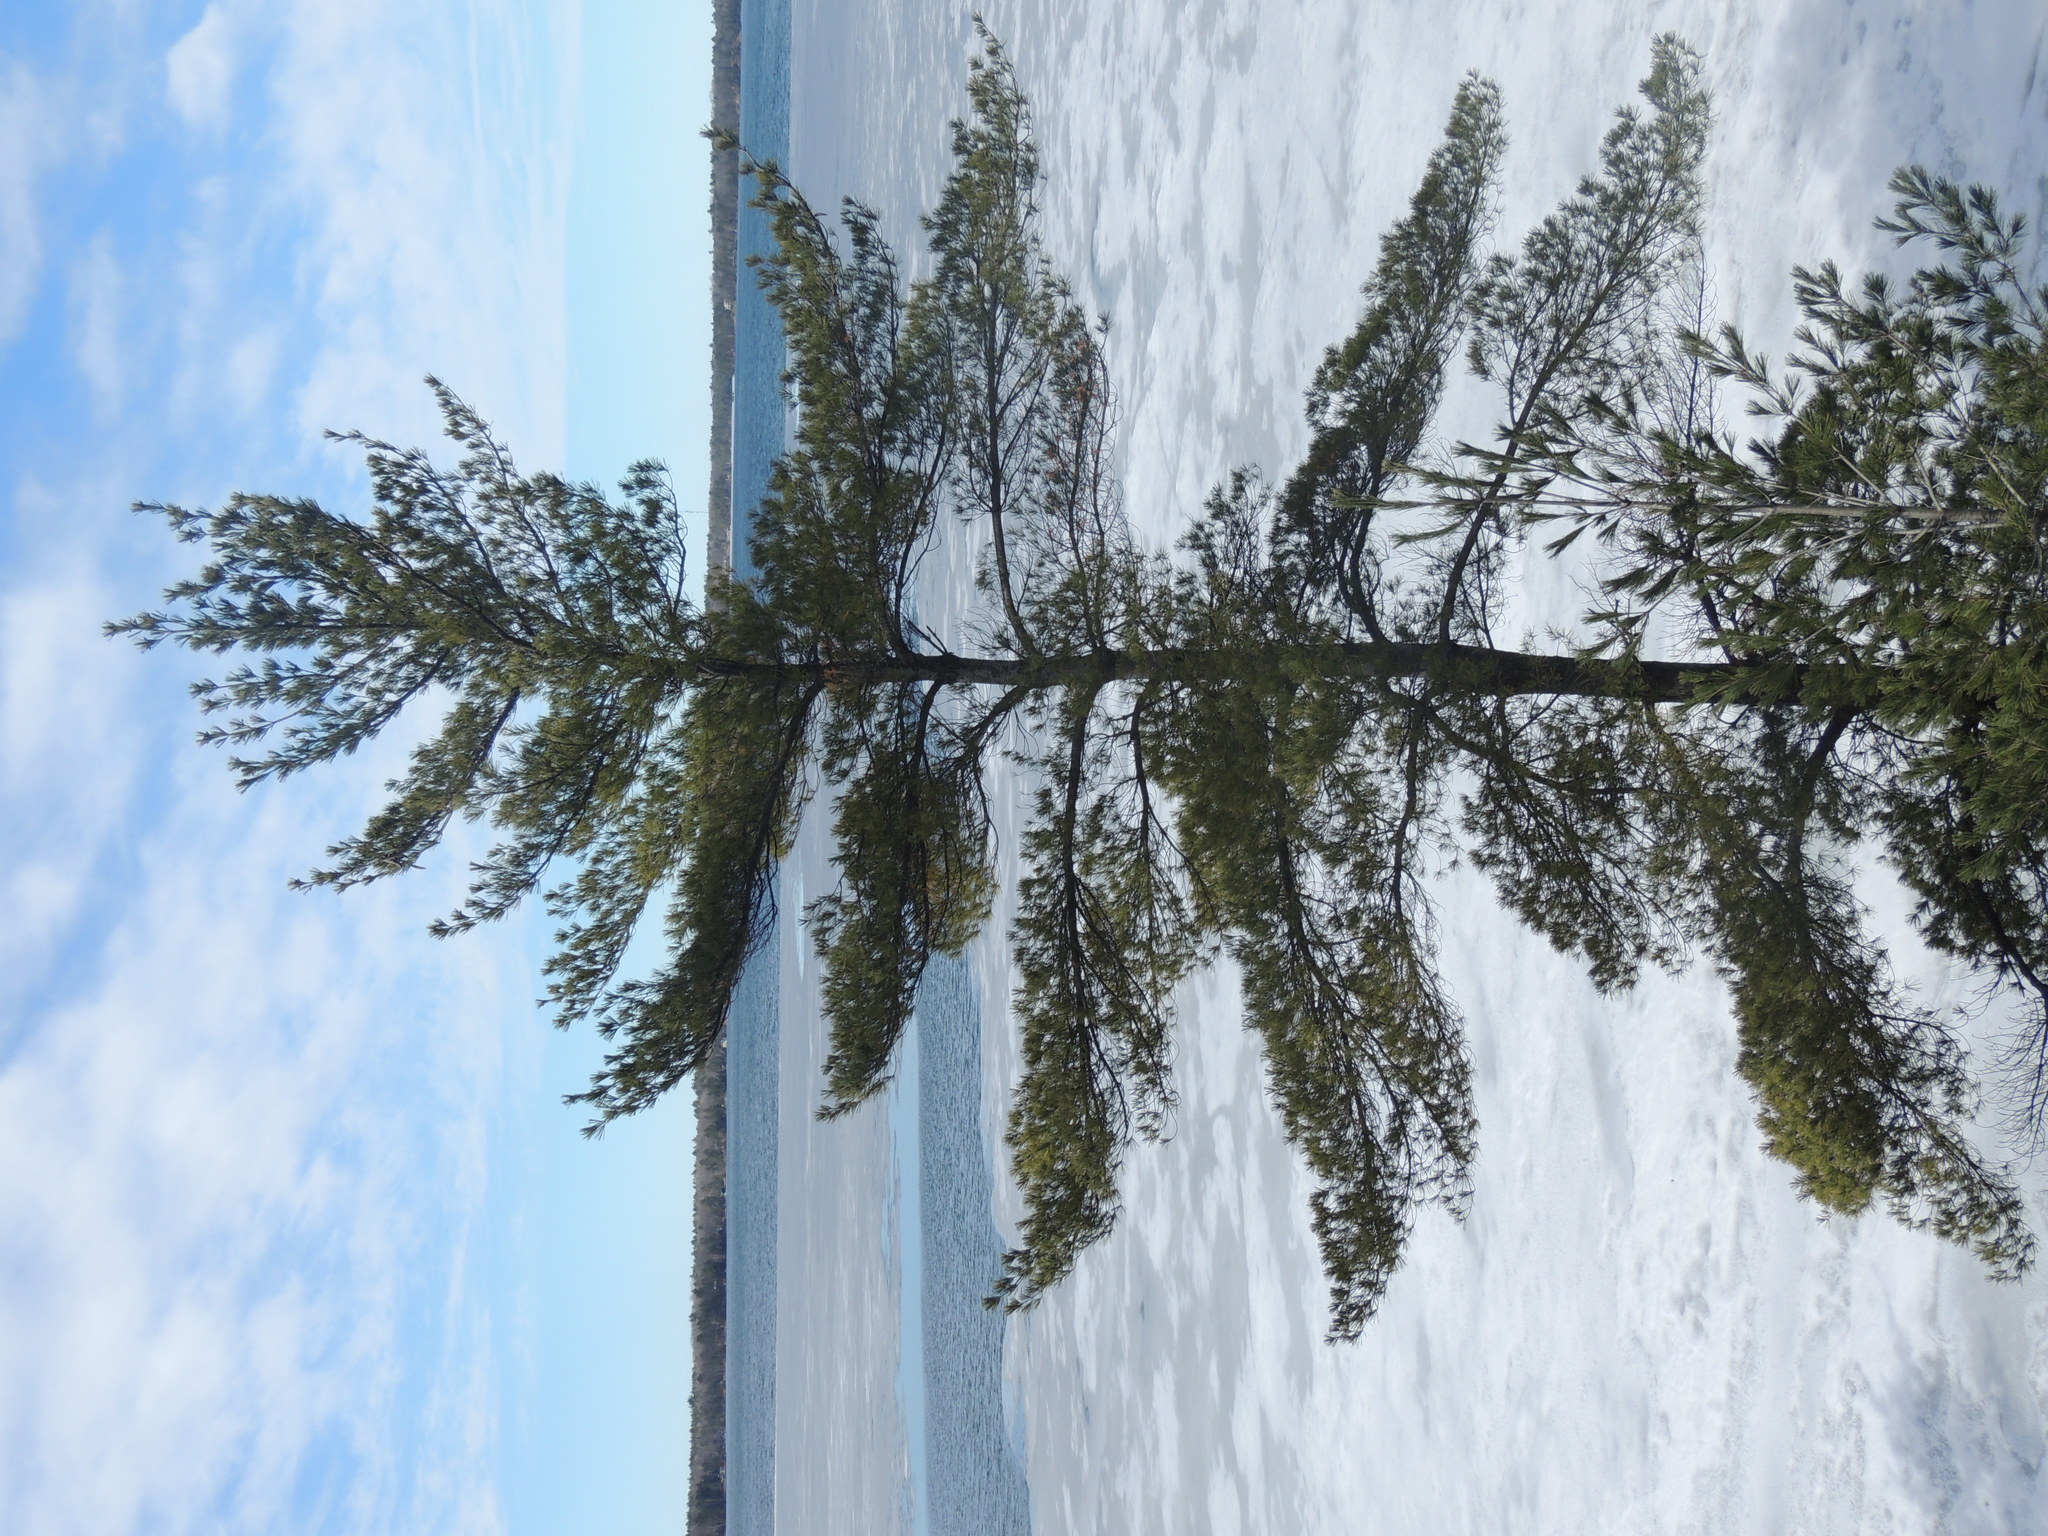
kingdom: Plantae
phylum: Tracheophyta
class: Pinopsida
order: Pinales
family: Pinaceae
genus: Pinus
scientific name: Pinus strobus
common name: Weymouth pine
